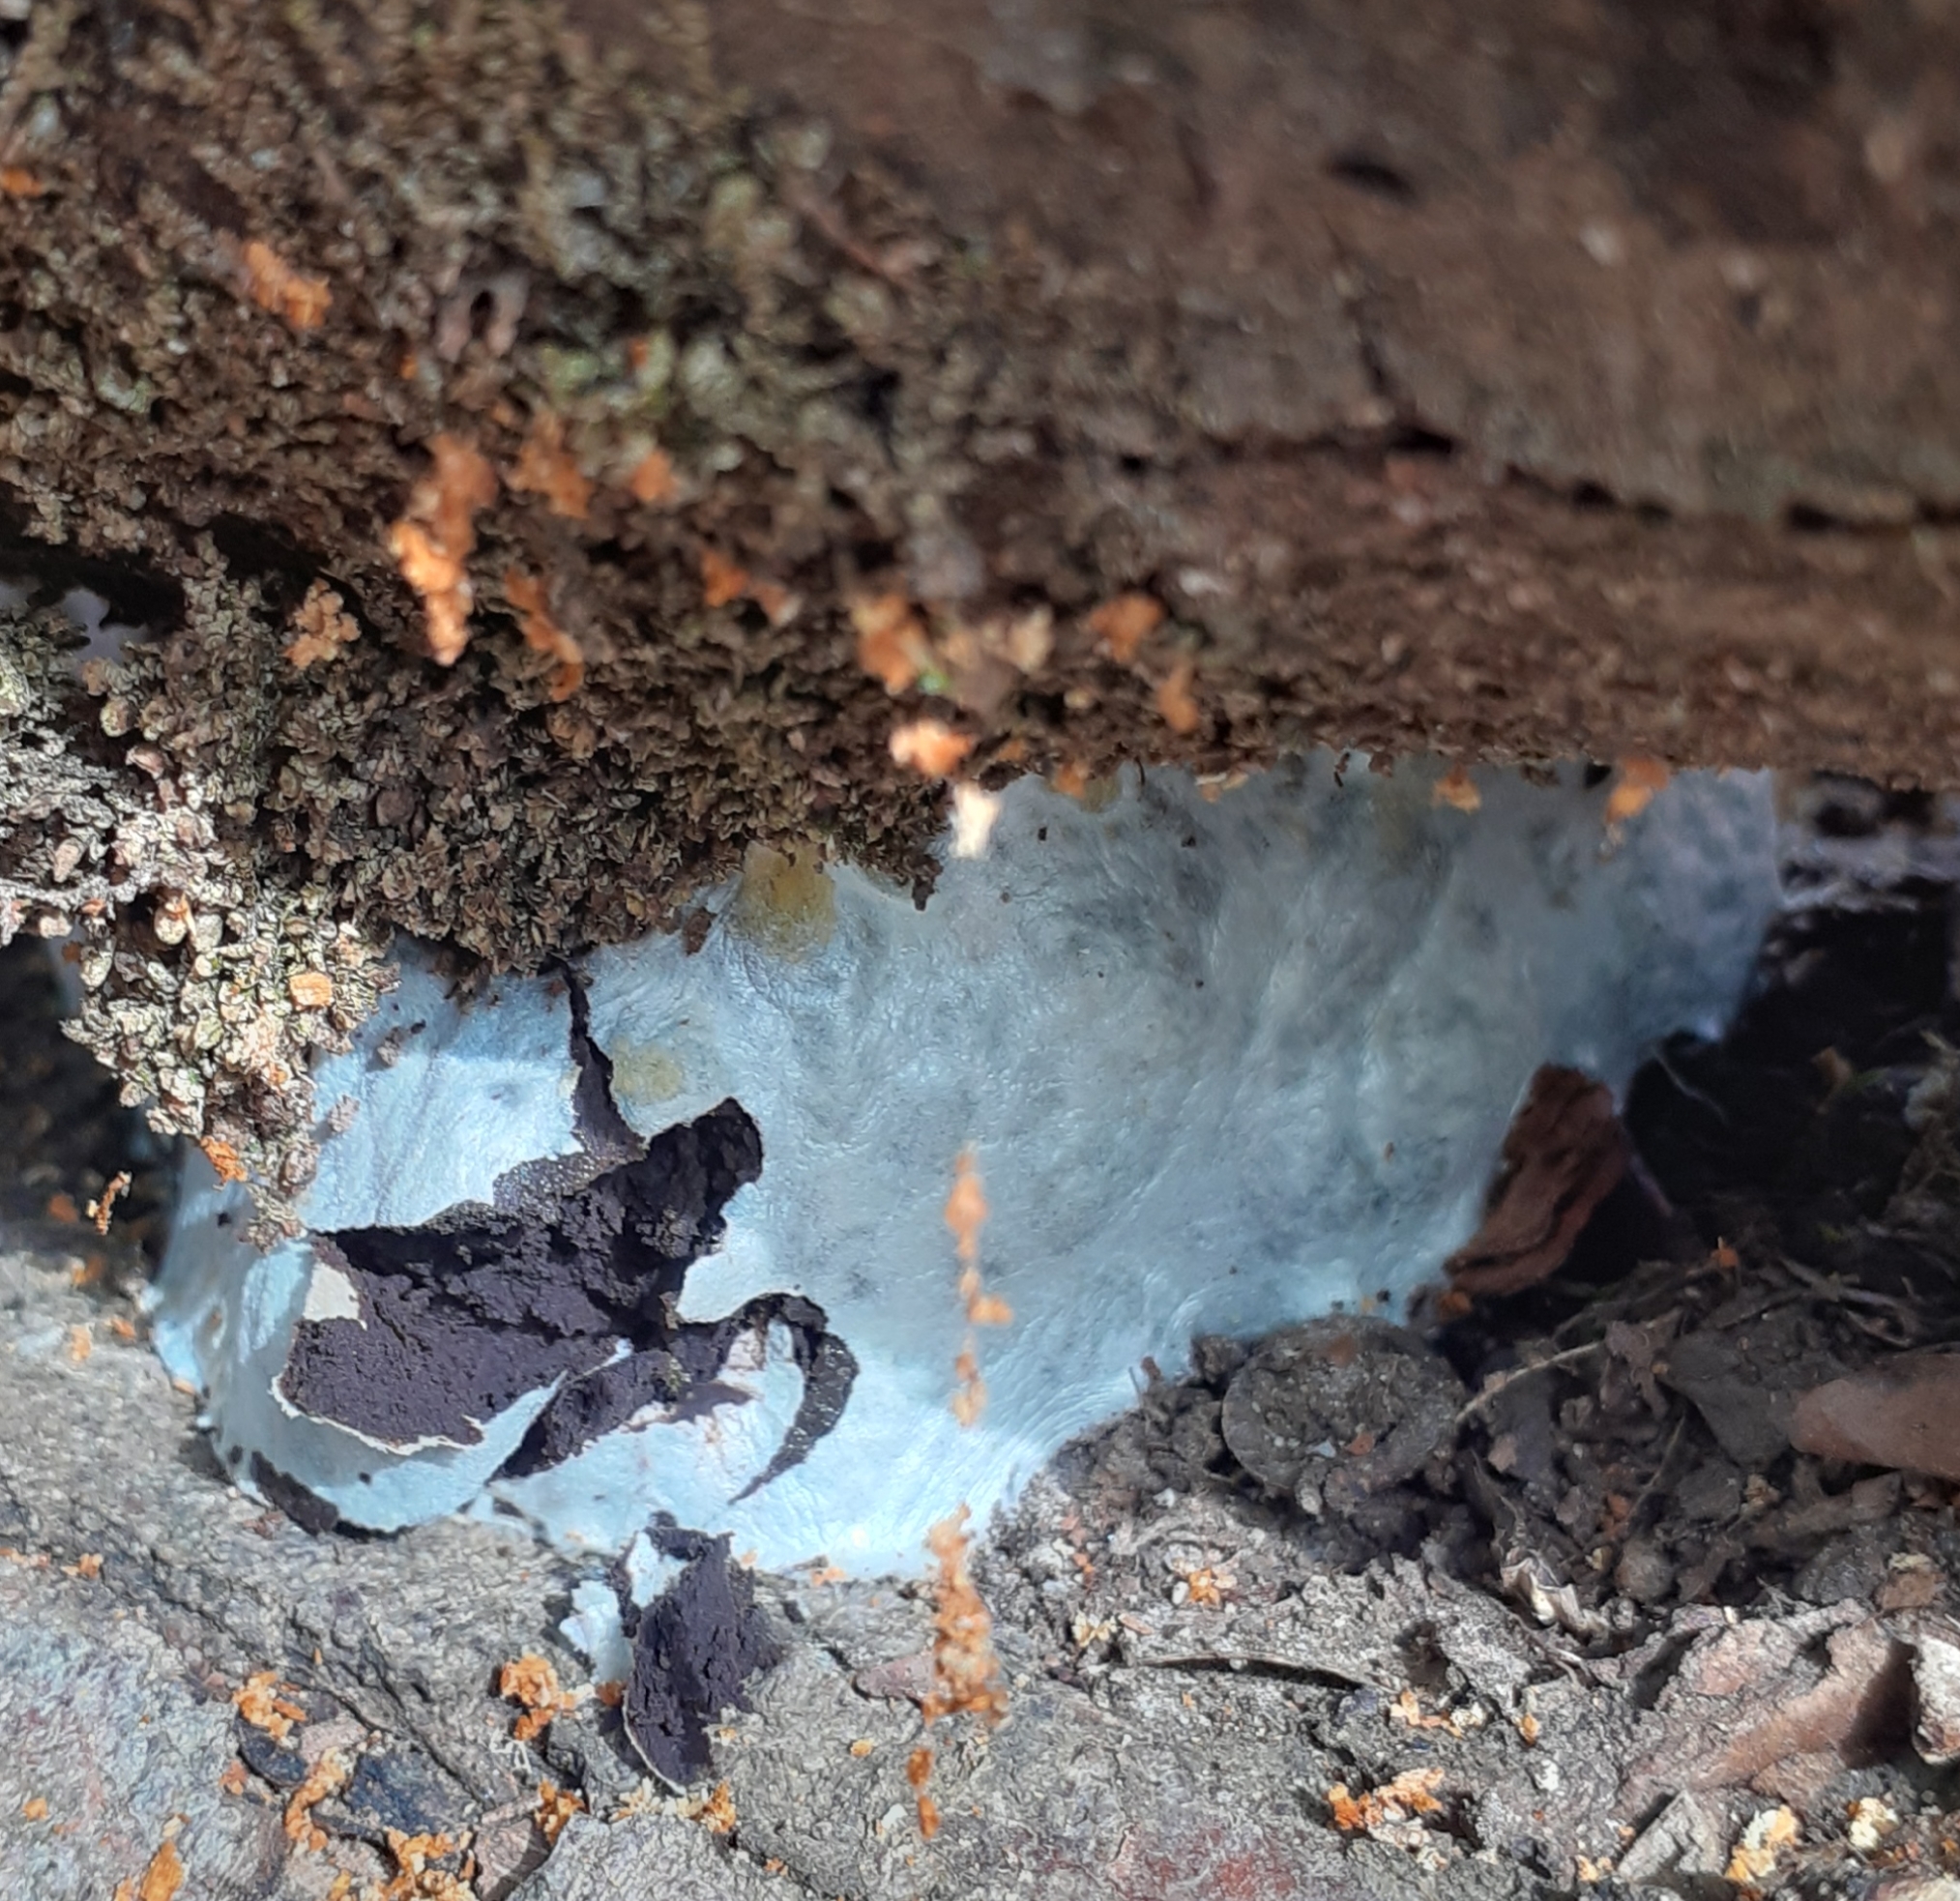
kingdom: Protozoa
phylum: Mycetozoa
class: Myxomycetes
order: Cribrariales
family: Tubiferaceae
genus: Reticularia
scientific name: Reticularia lycoperdon
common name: False puffball
